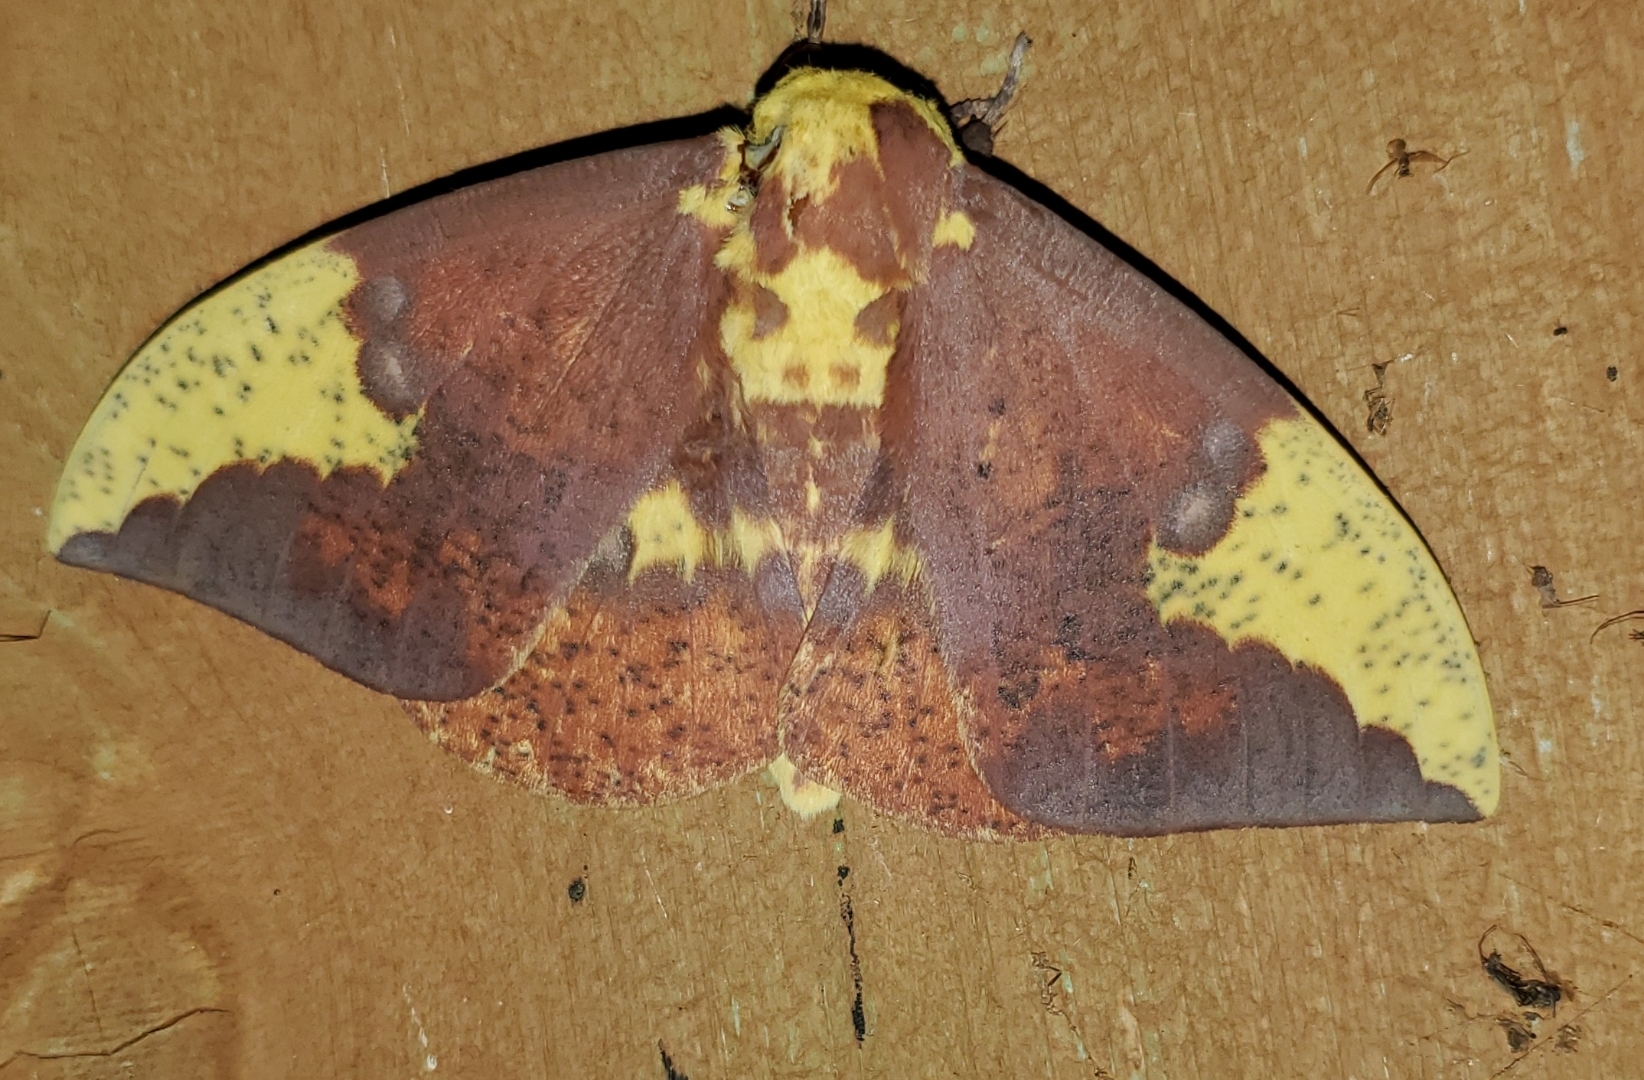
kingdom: Animalia
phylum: Arthropoda
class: Insecta
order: Lepidoptera
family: Saturniidae
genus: Eacles
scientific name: Eacles imperialis
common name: Imperial moth
